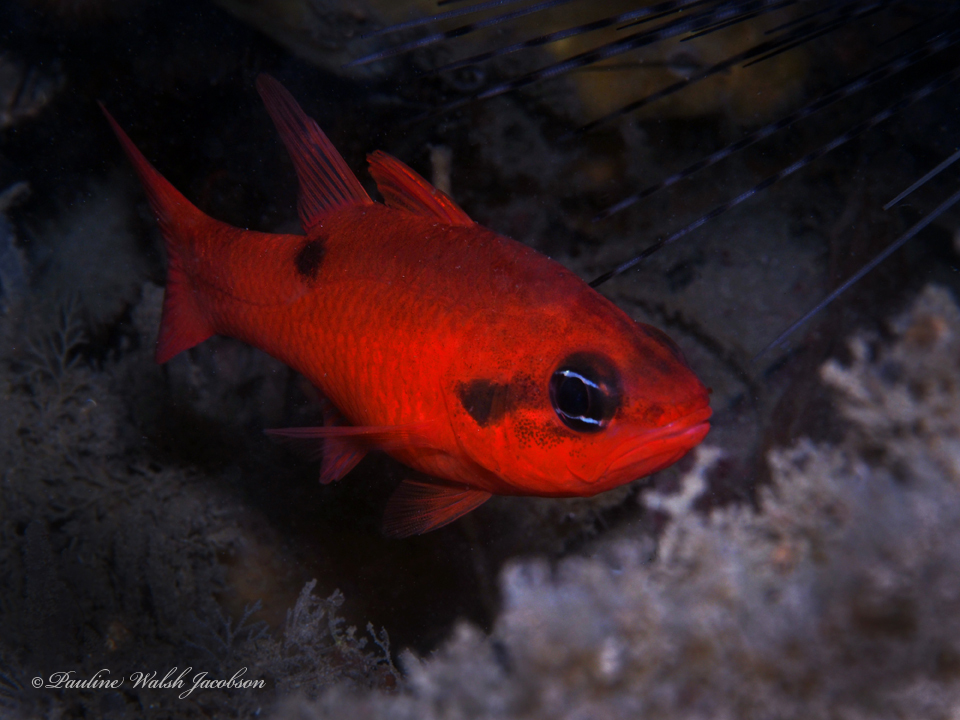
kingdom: Animalia
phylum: Chordata
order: Perciformes
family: Apogonidae
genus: Apogon
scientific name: Apogon maculatus
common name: Flamefish
